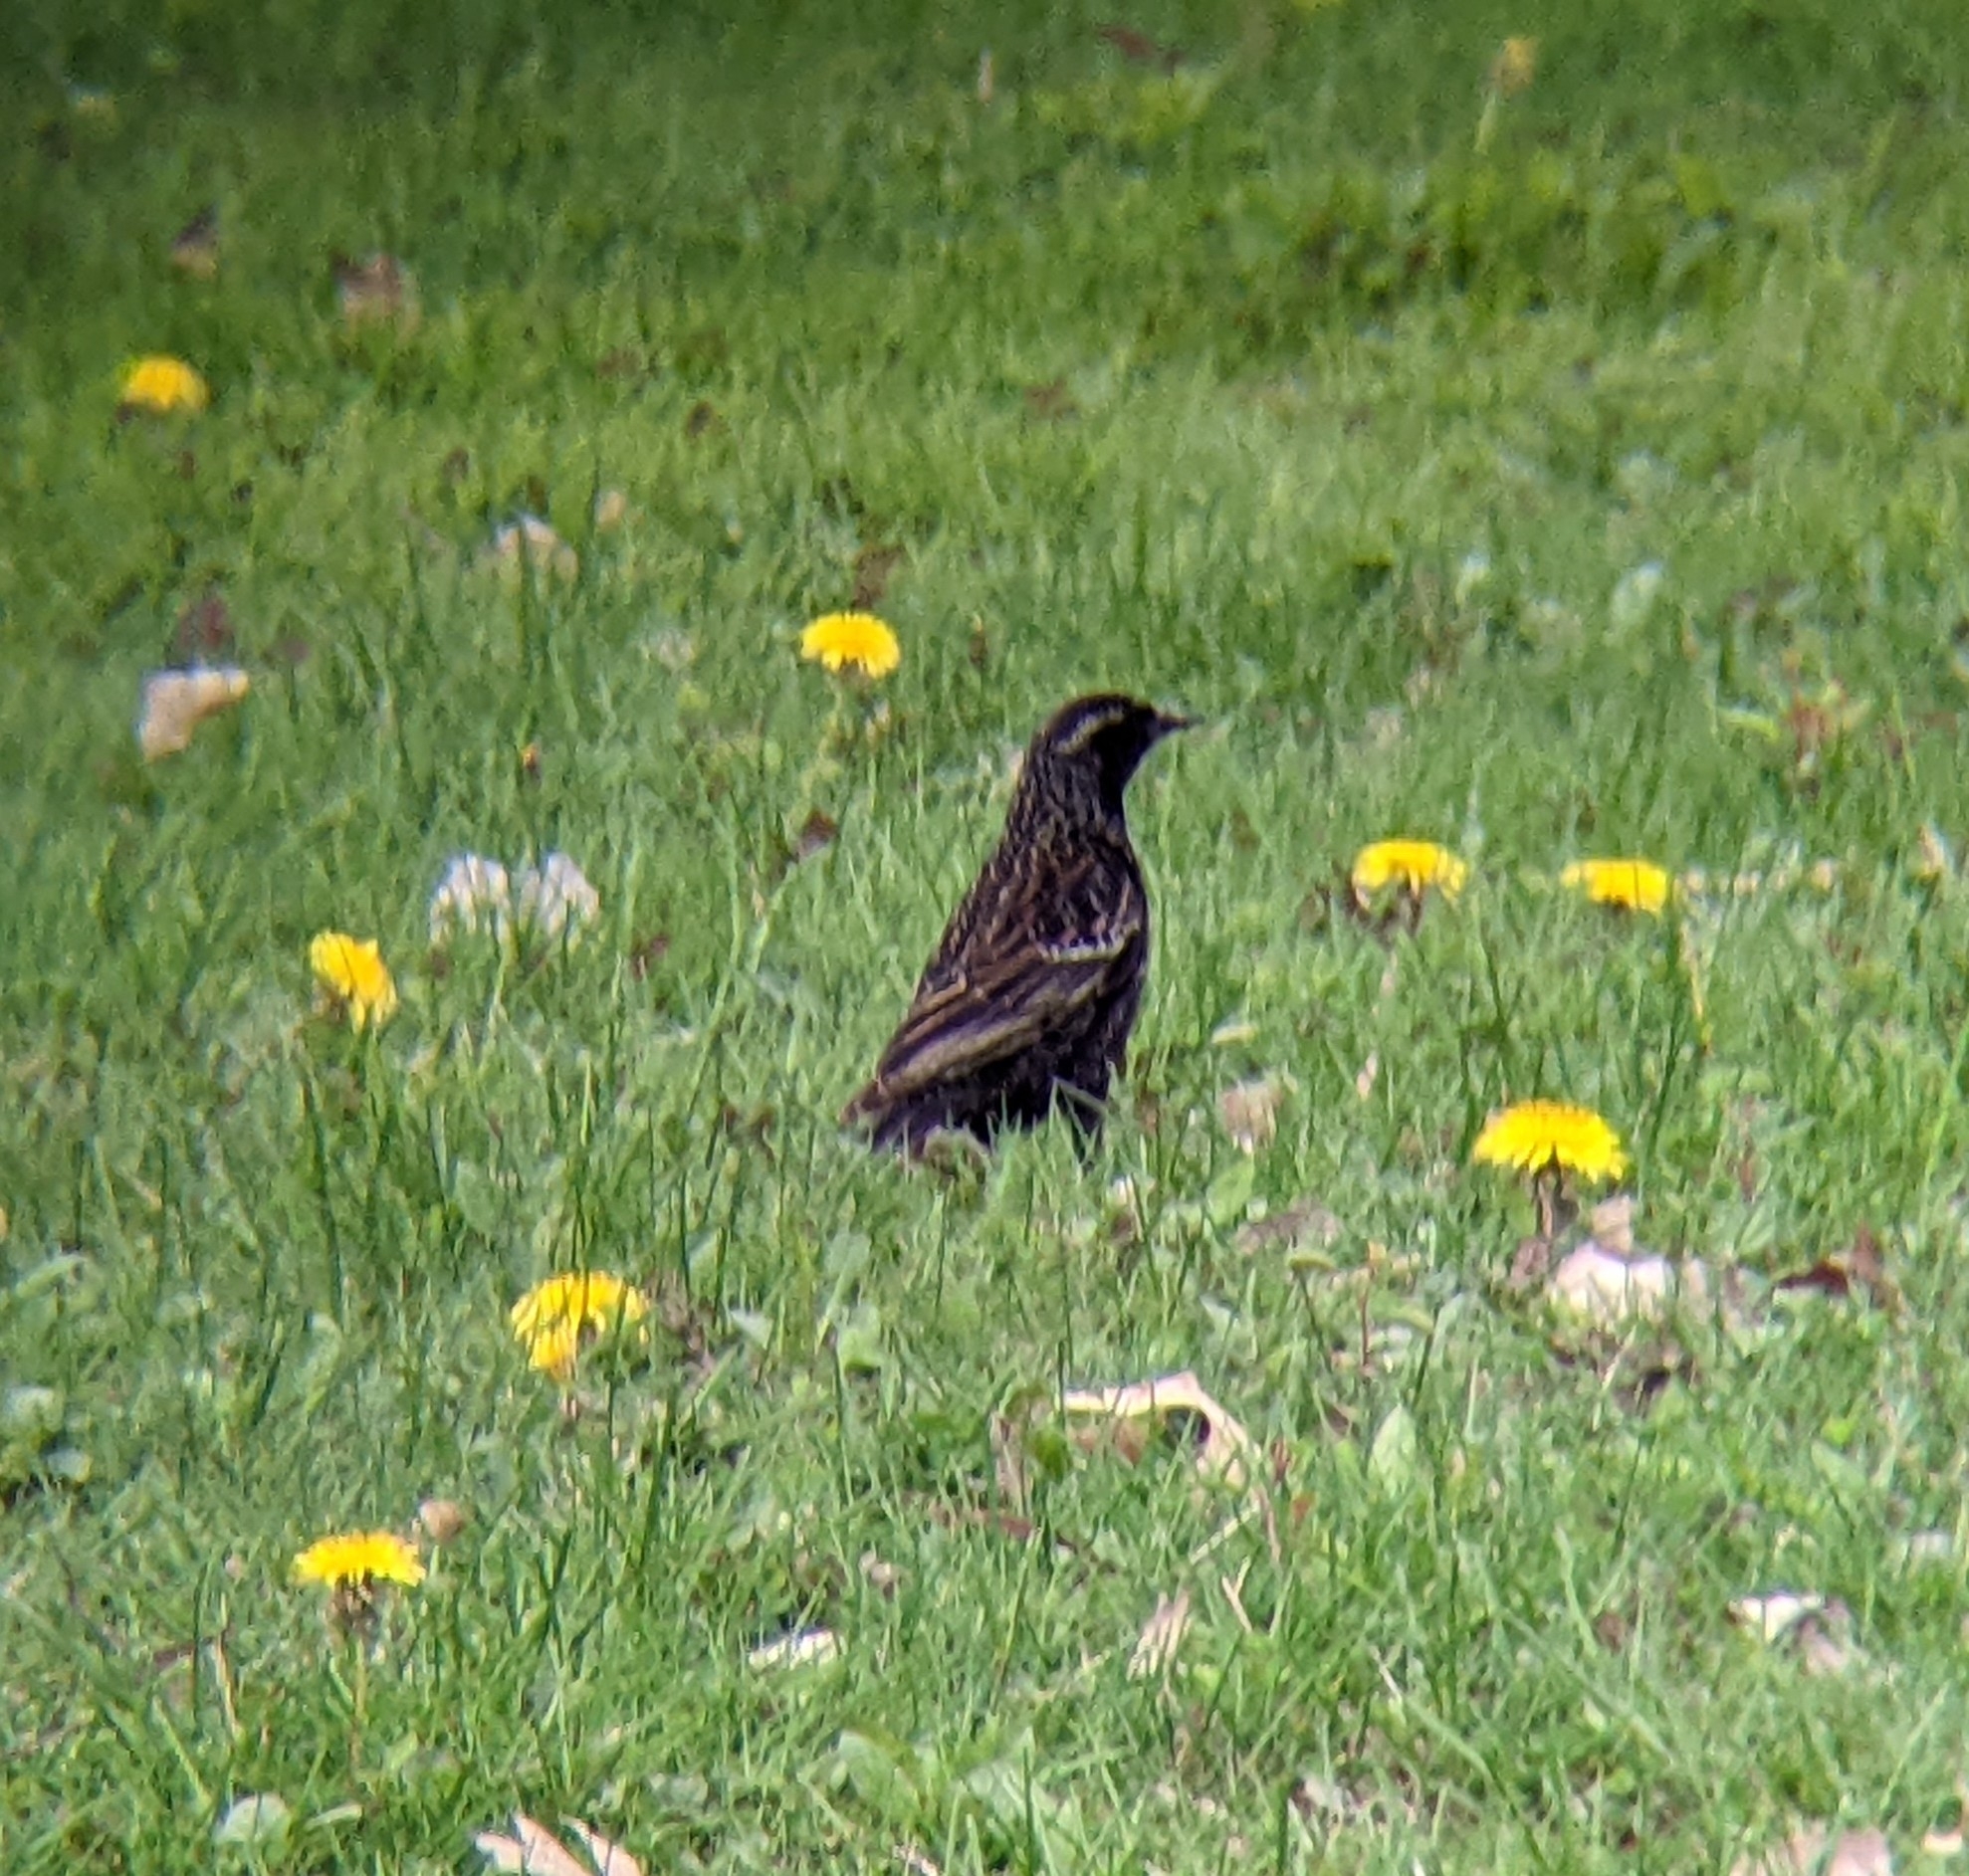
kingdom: Animalia
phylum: Chordata
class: Aves
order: Passeriformes
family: Icteridae
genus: Agelaius
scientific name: Agelaius phoeniceus
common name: Red-winged blackbird
